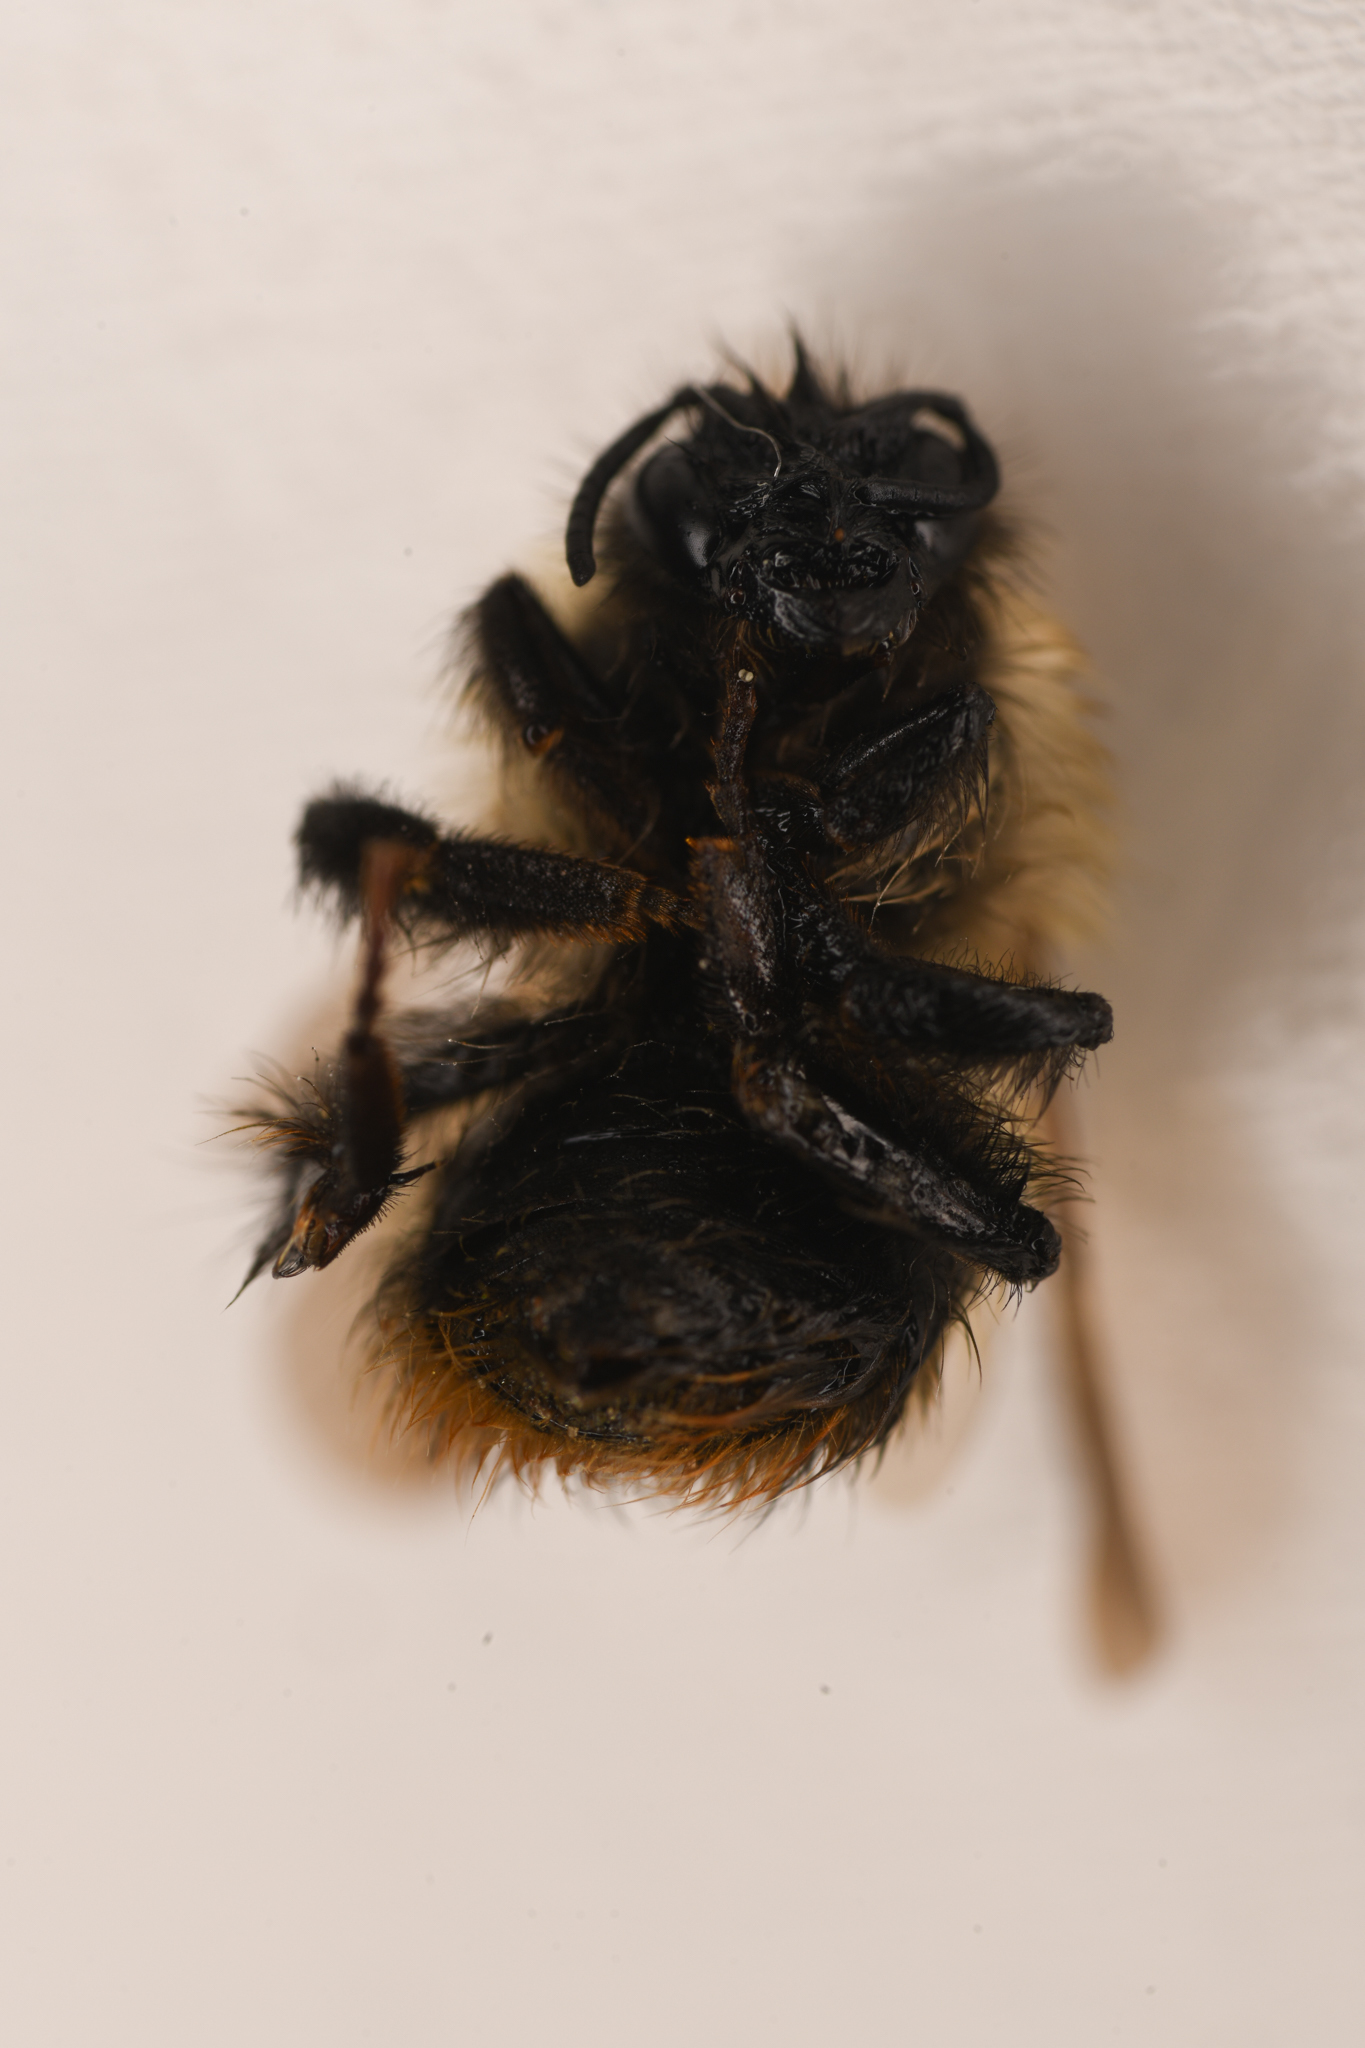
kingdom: Animalia
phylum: Arthropoda
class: Insecta
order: Hymenoptera
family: Apidae
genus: Bombus
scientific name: Bombus frigidus
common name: Frigid bumble bee
